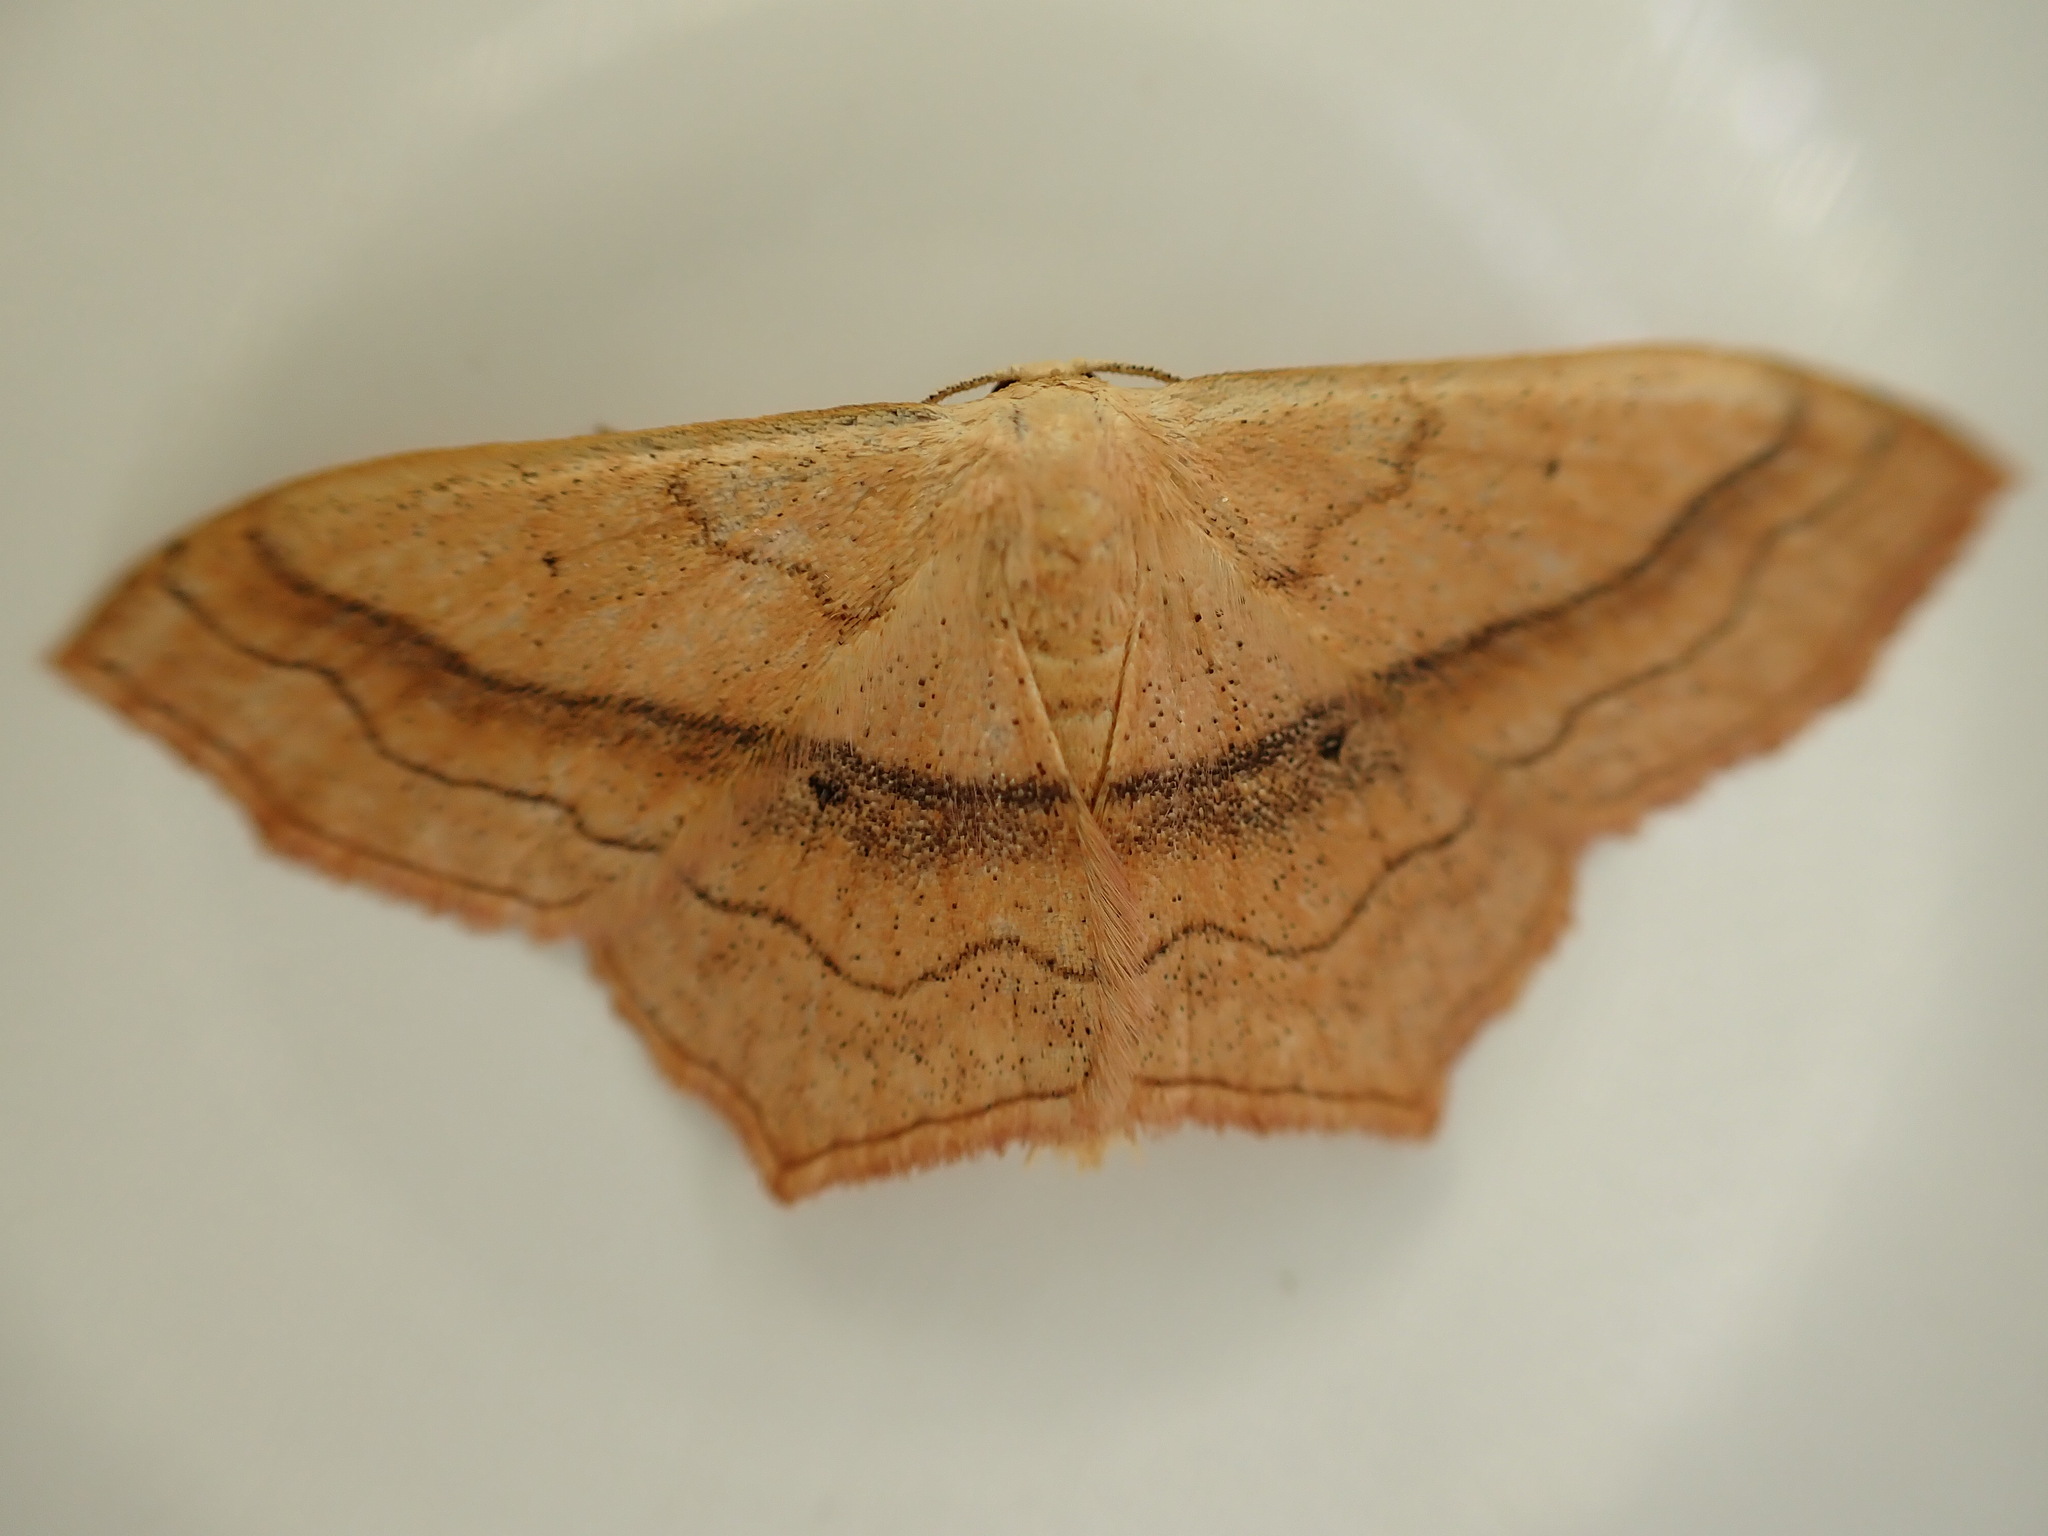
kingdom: Animalia
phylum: Arthropoda
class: Insecta
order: Lepidoptera
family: Geometridae
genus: Scopula
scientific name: Scopula imitaria
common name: Small blood-vein
